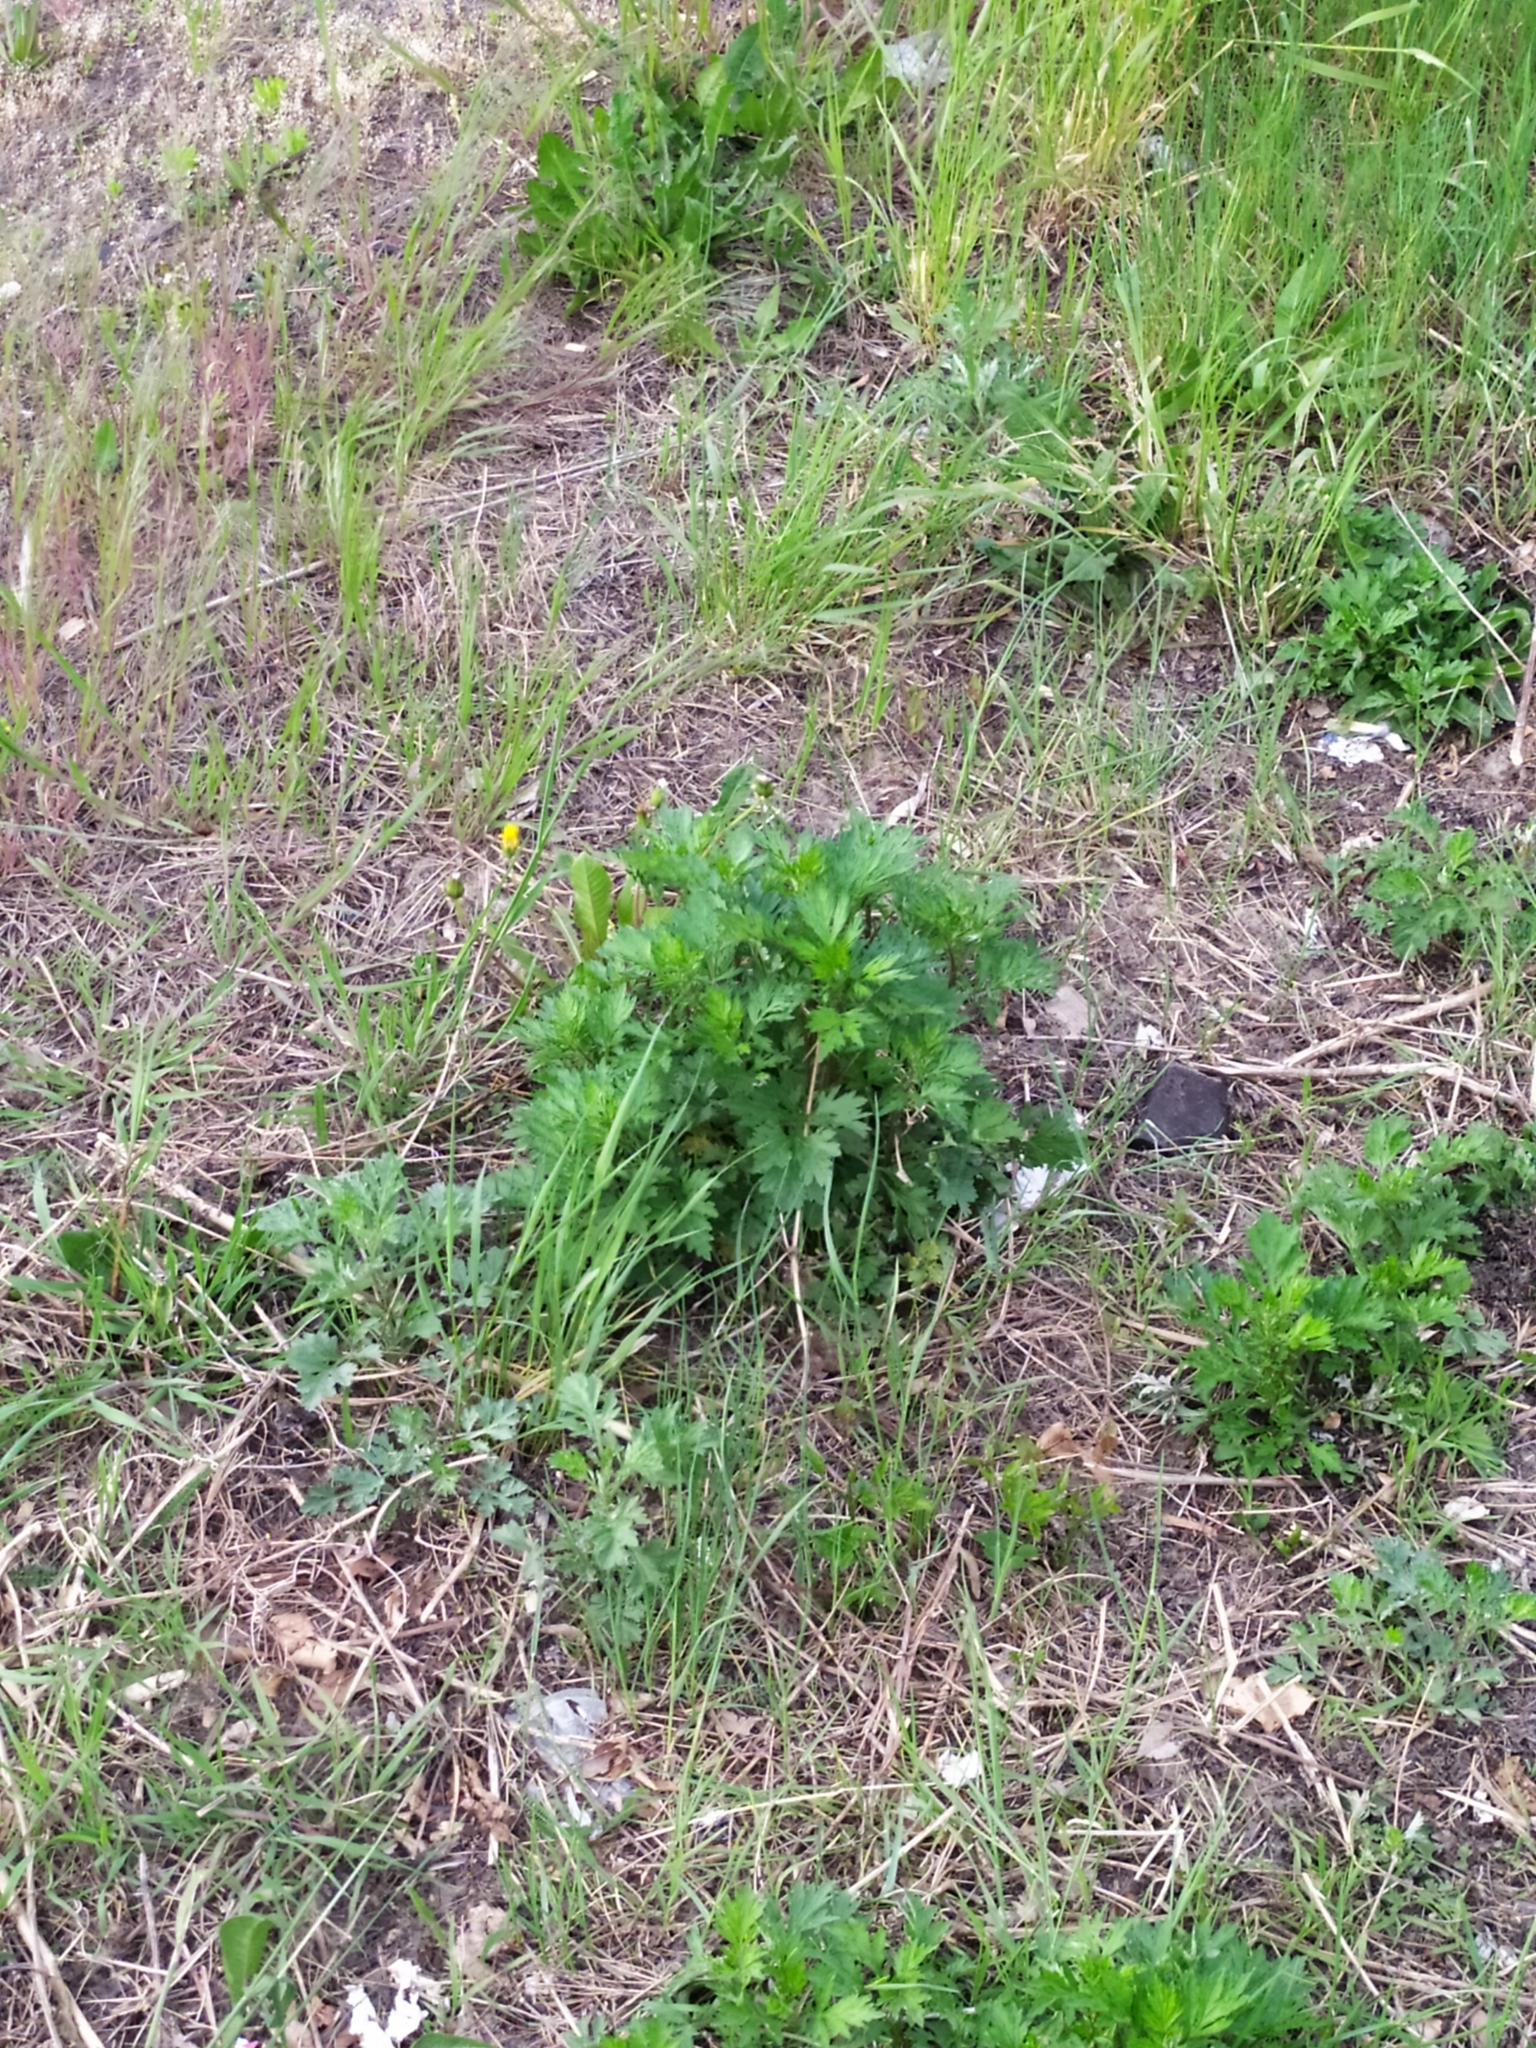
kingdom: Plantae
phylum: Tracheophyta
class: Magnoliopsida
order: Asterales
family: Asteraceae
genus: Artemisia
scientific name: Artemisia vulgaris
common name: Mugwort
